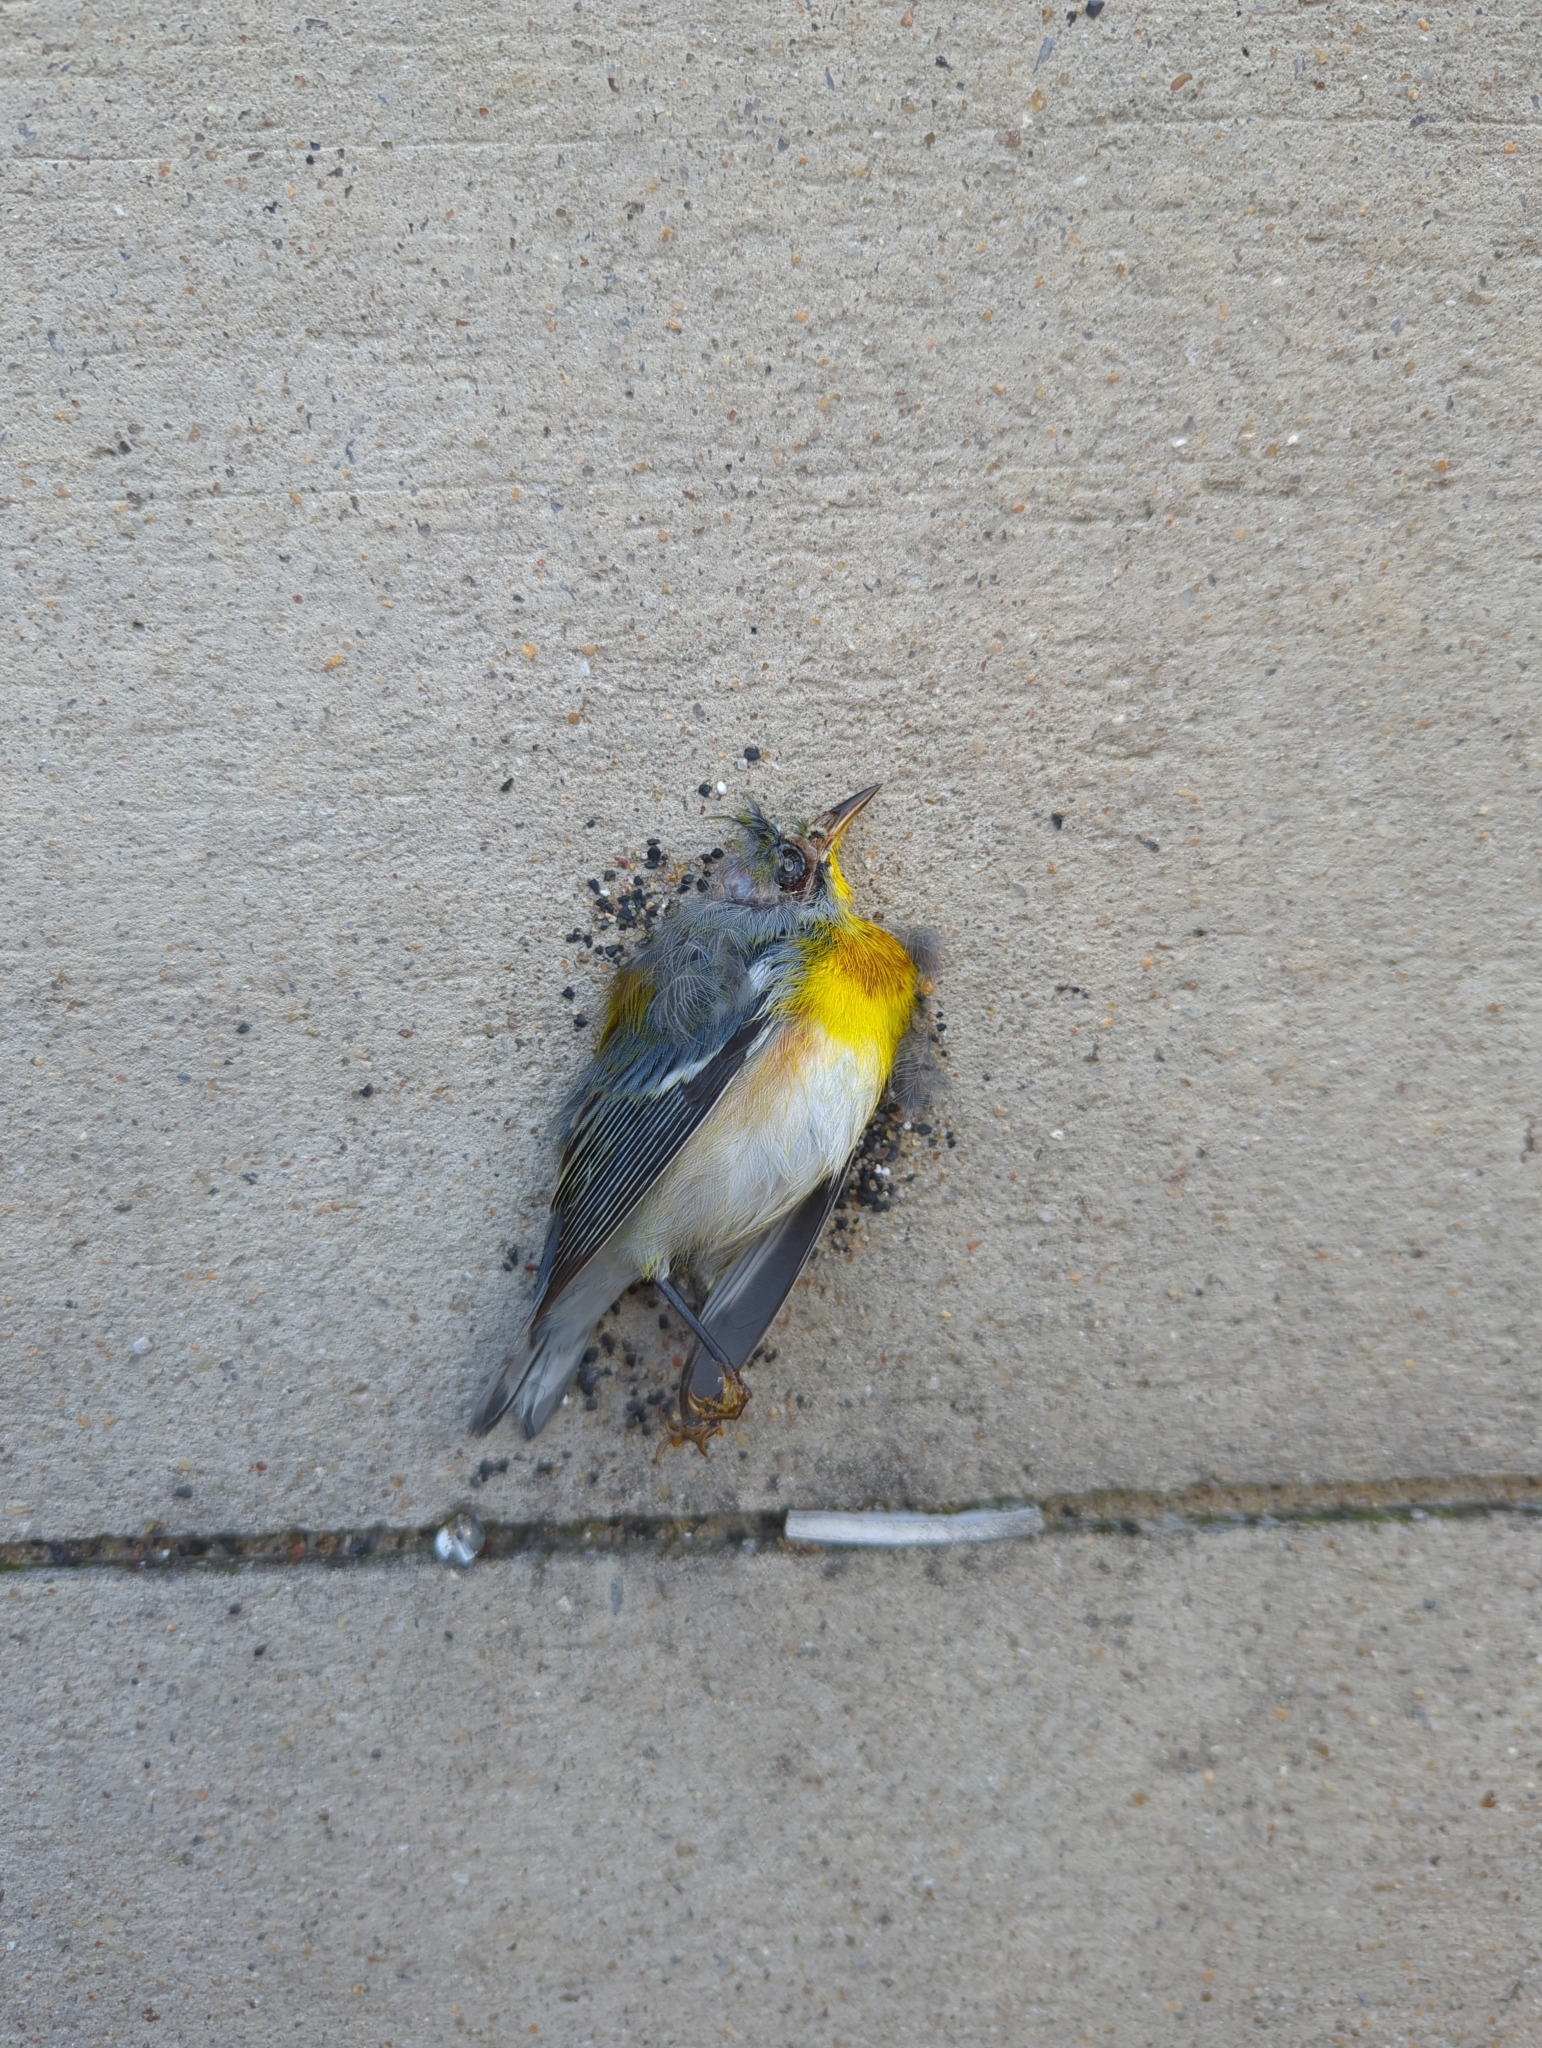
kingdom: Animalia
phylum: Chordata
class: Aves
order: Passeriformes
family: Parulidae
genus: Setophaga
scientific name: Setophaga americana
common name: Northern parula
